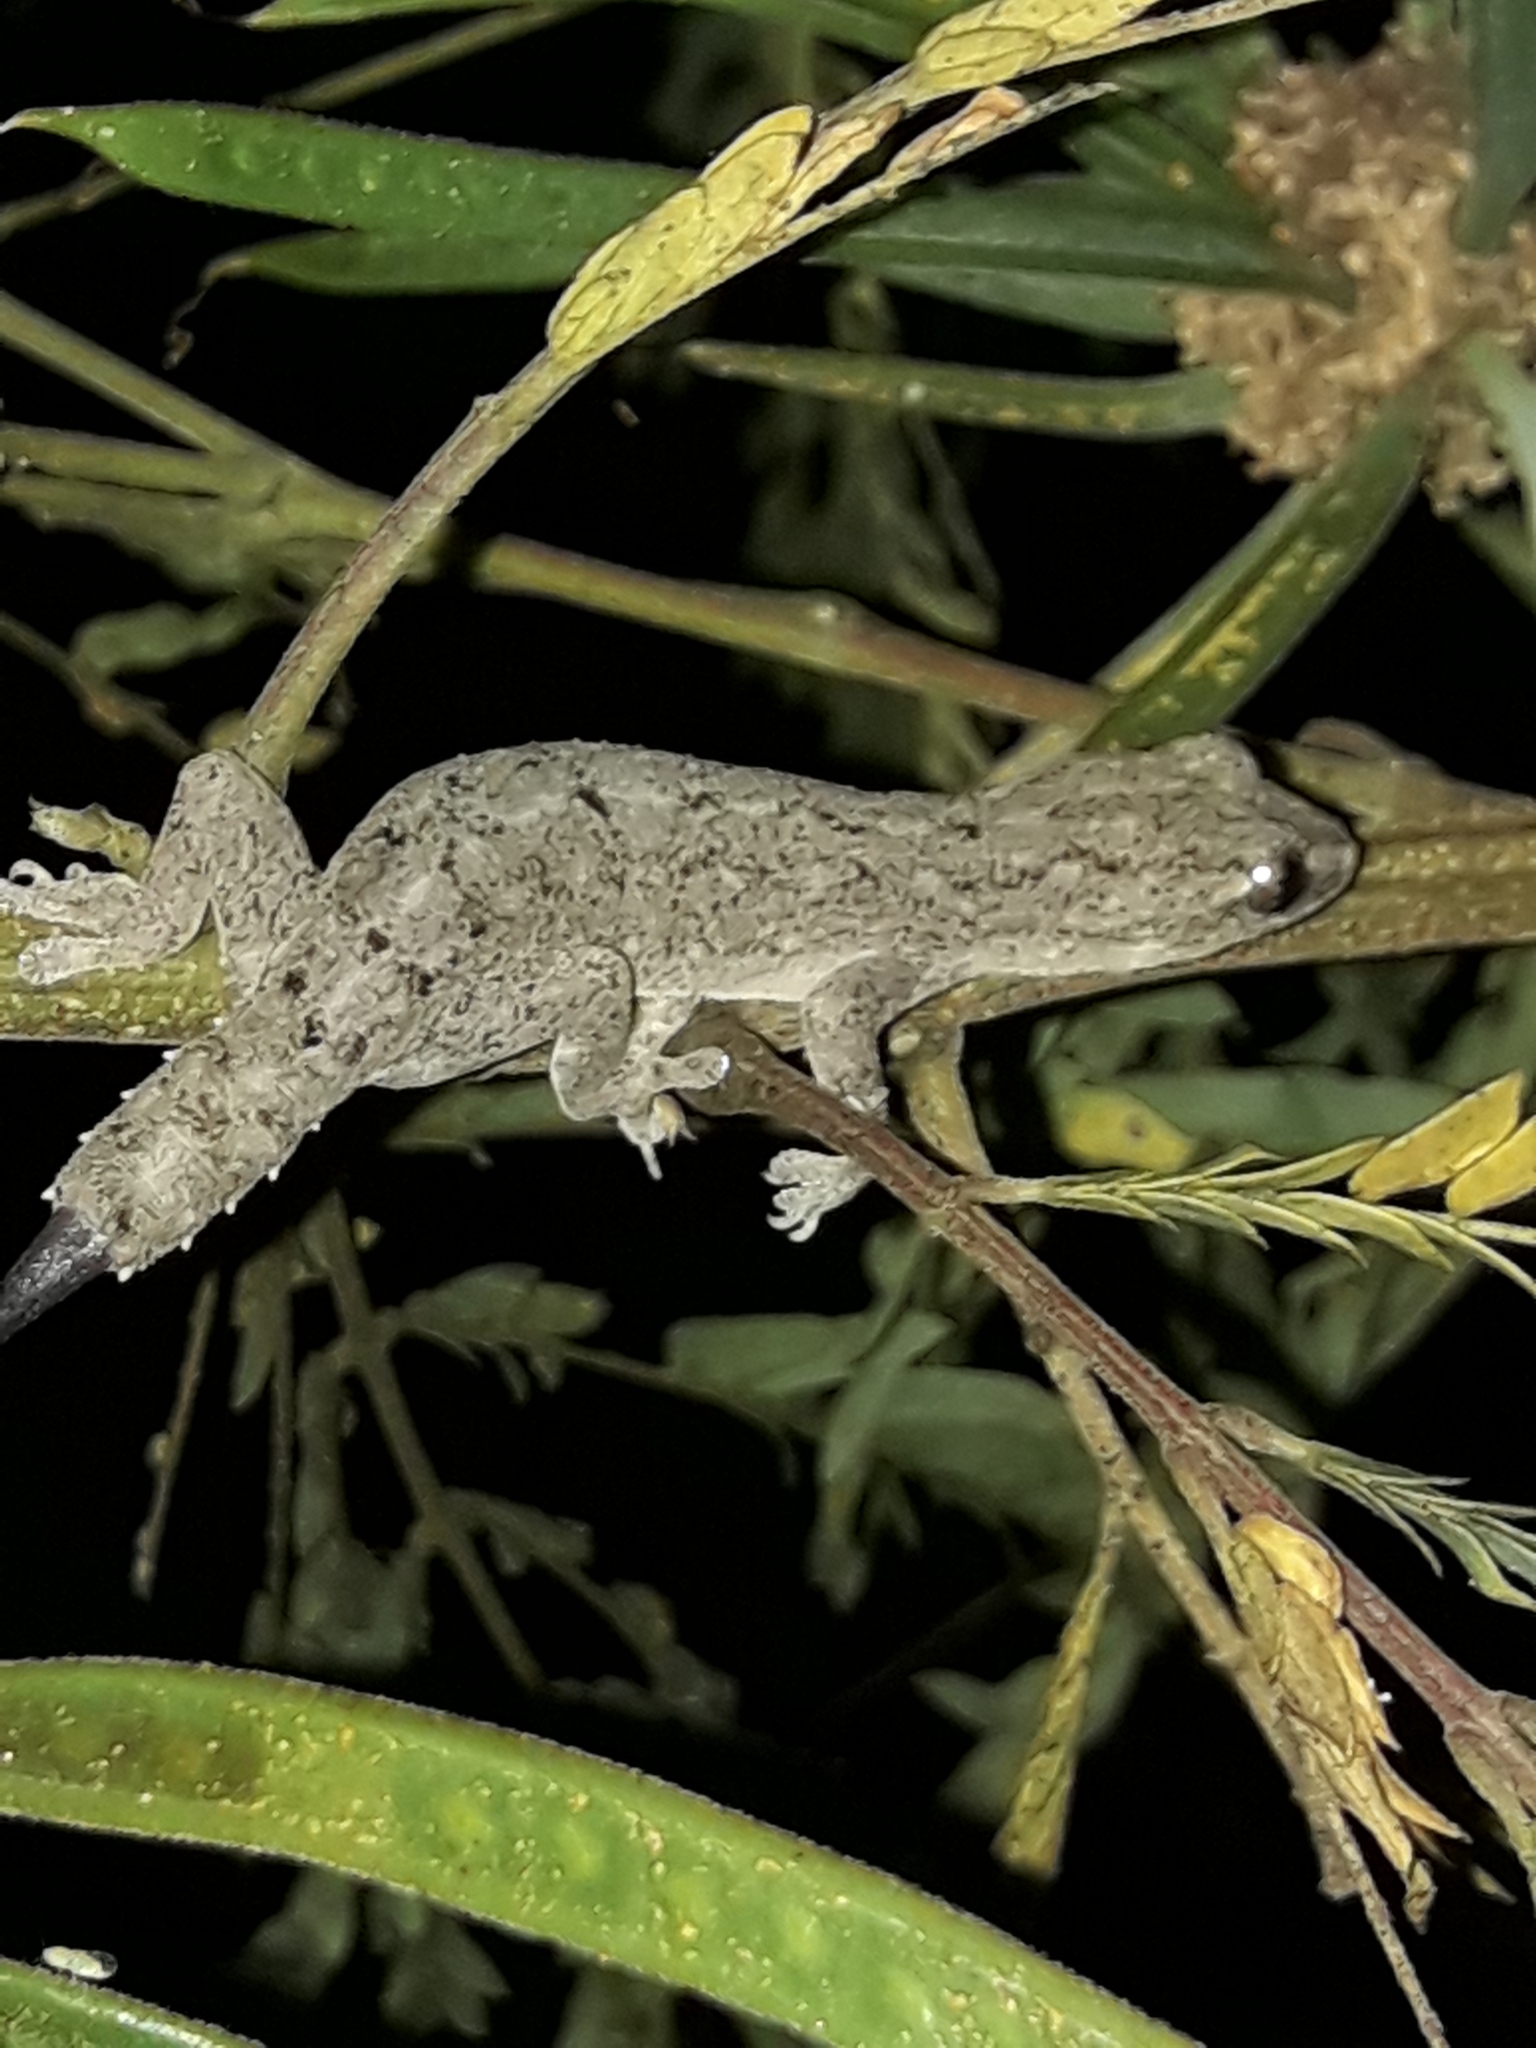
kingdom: Animalia
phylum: Chordata
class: Squamata
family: Gekkonidae
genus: Hemidactylus
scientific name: Hemidactylus frenatus
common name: Common house gecko
